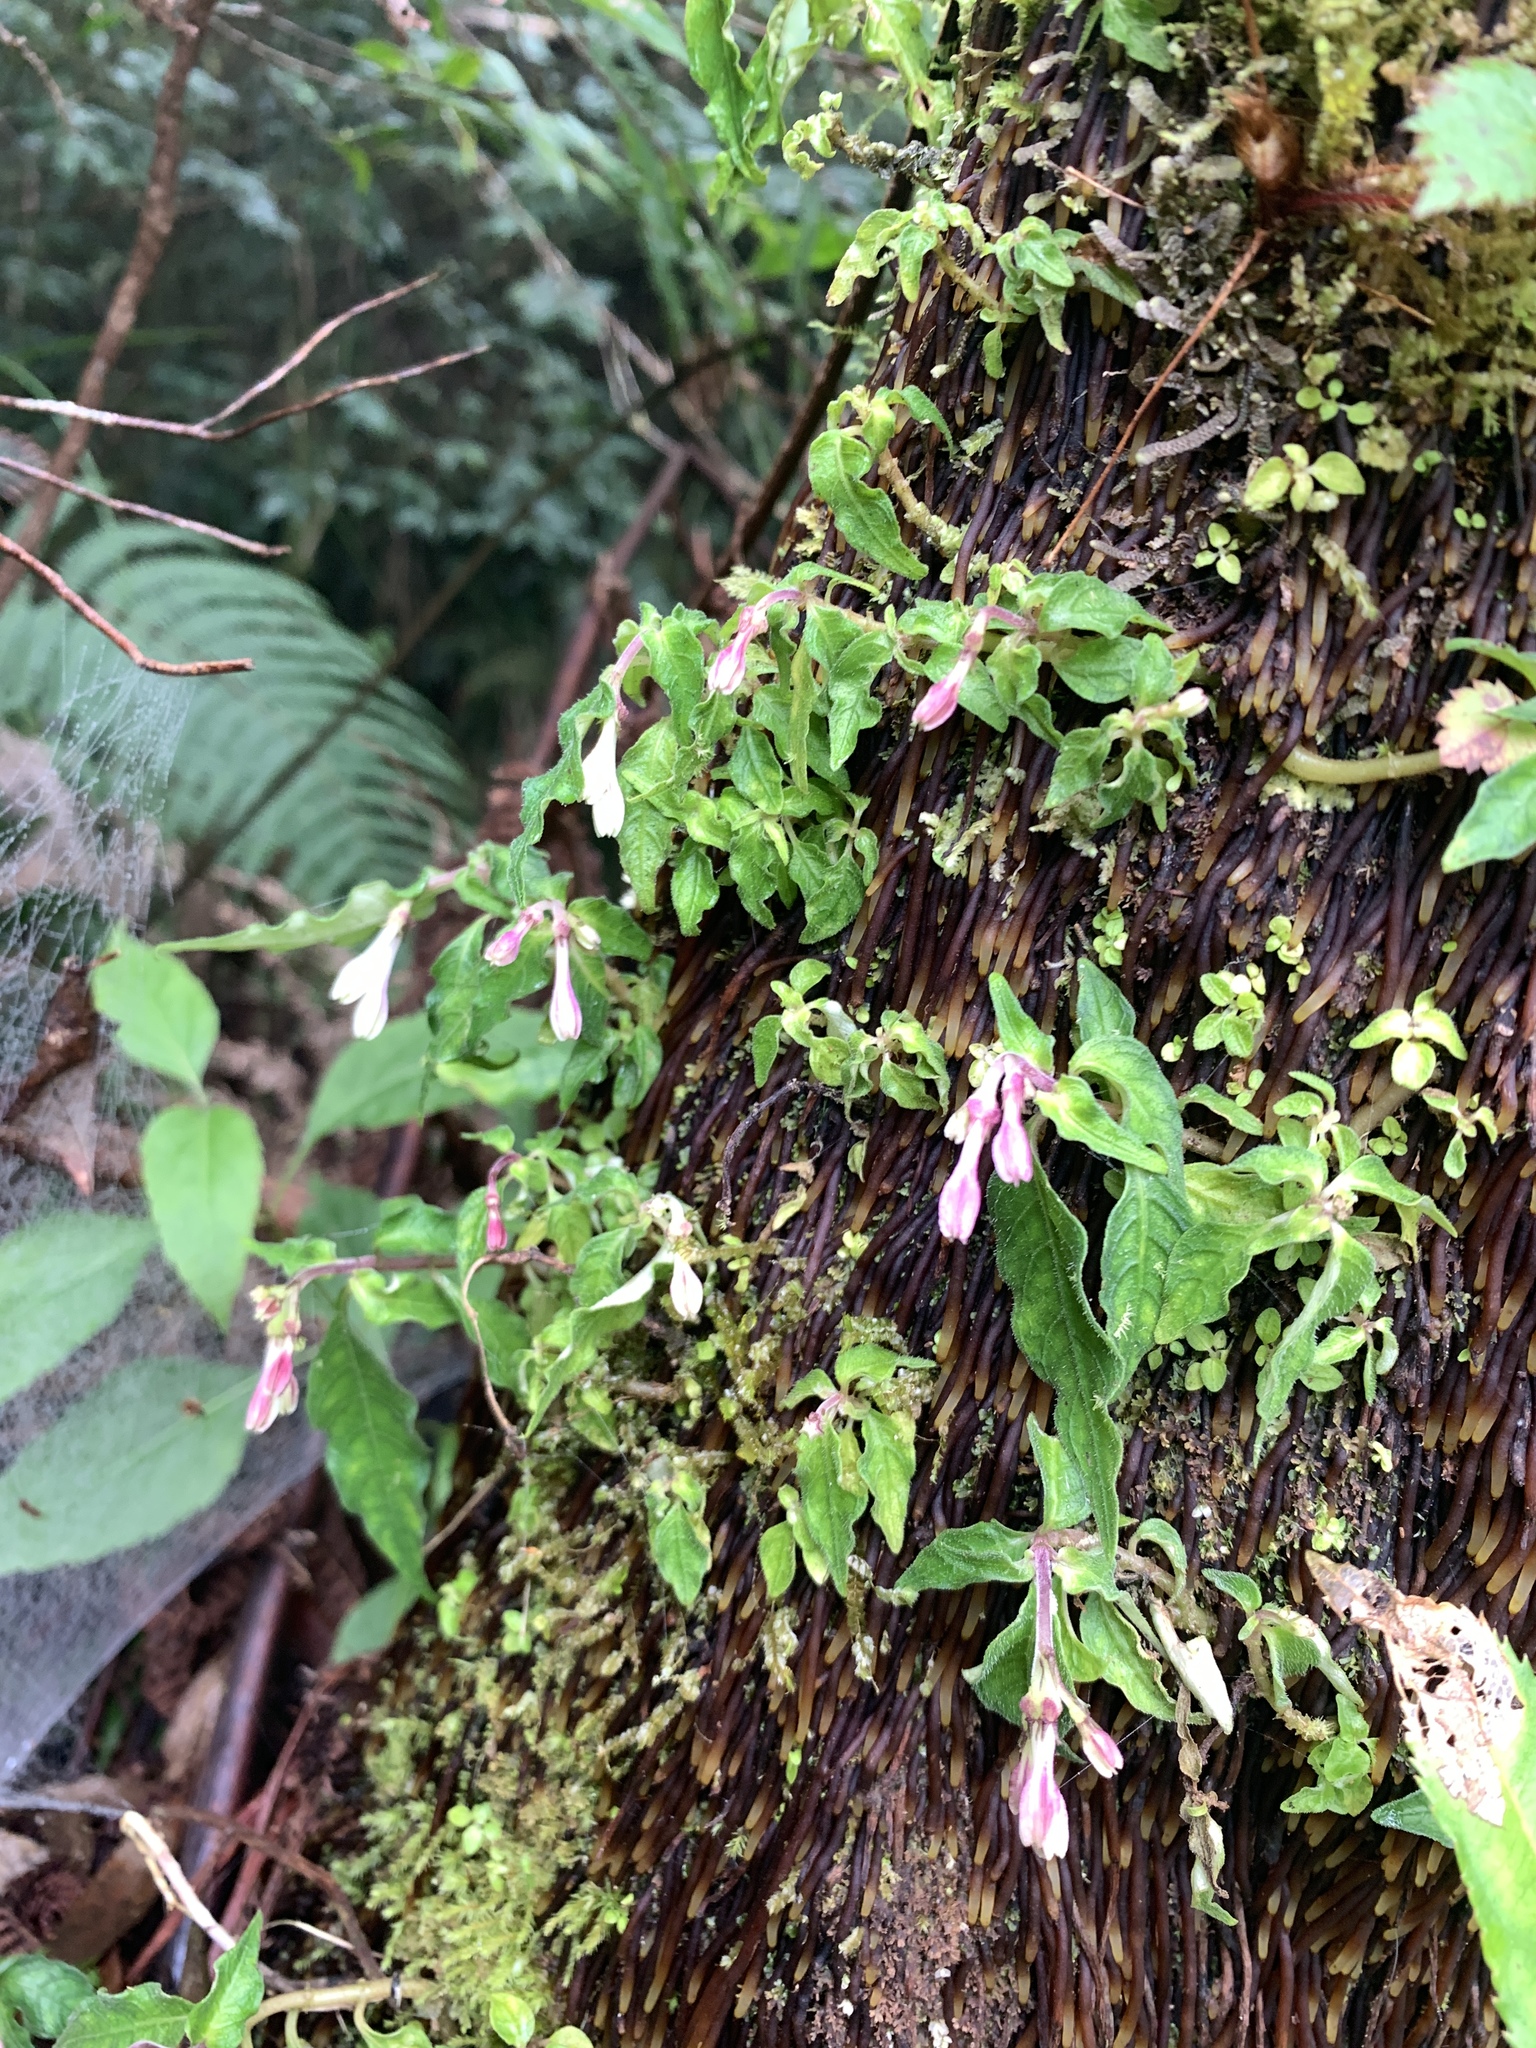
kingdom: Plantae
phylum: Tracheophyta
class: Magnoliopsida
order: Gentianales
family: Rubiaceae
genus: Ophiorrhiza
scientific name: Ophiorrhiza japonica
